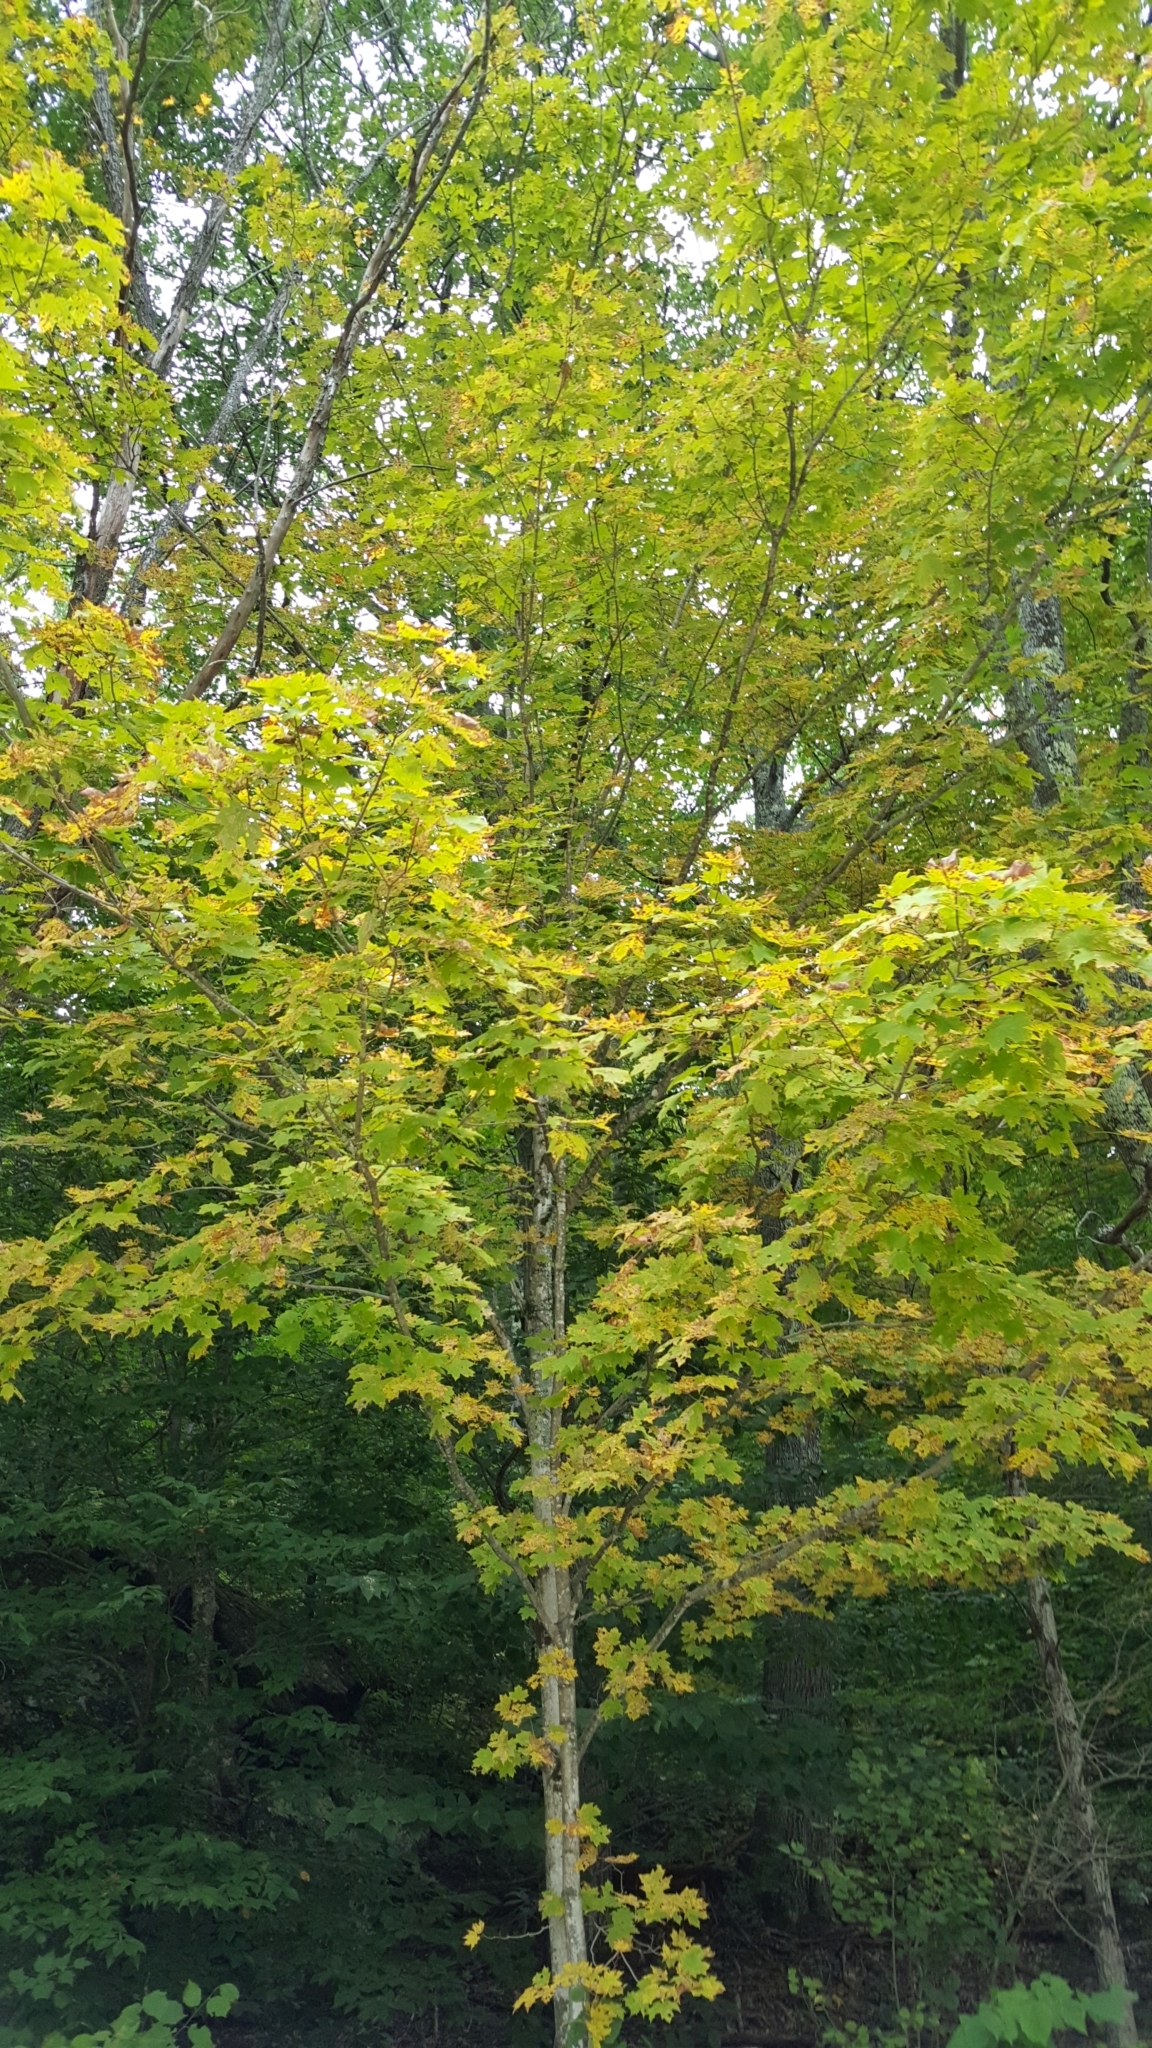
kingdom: Plantae
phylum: Tracheophyta
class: Magnoliopsida
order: Sapindales
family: Sapindaceae
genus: Acer
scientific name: Acer saccharum
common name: Sugar maple
